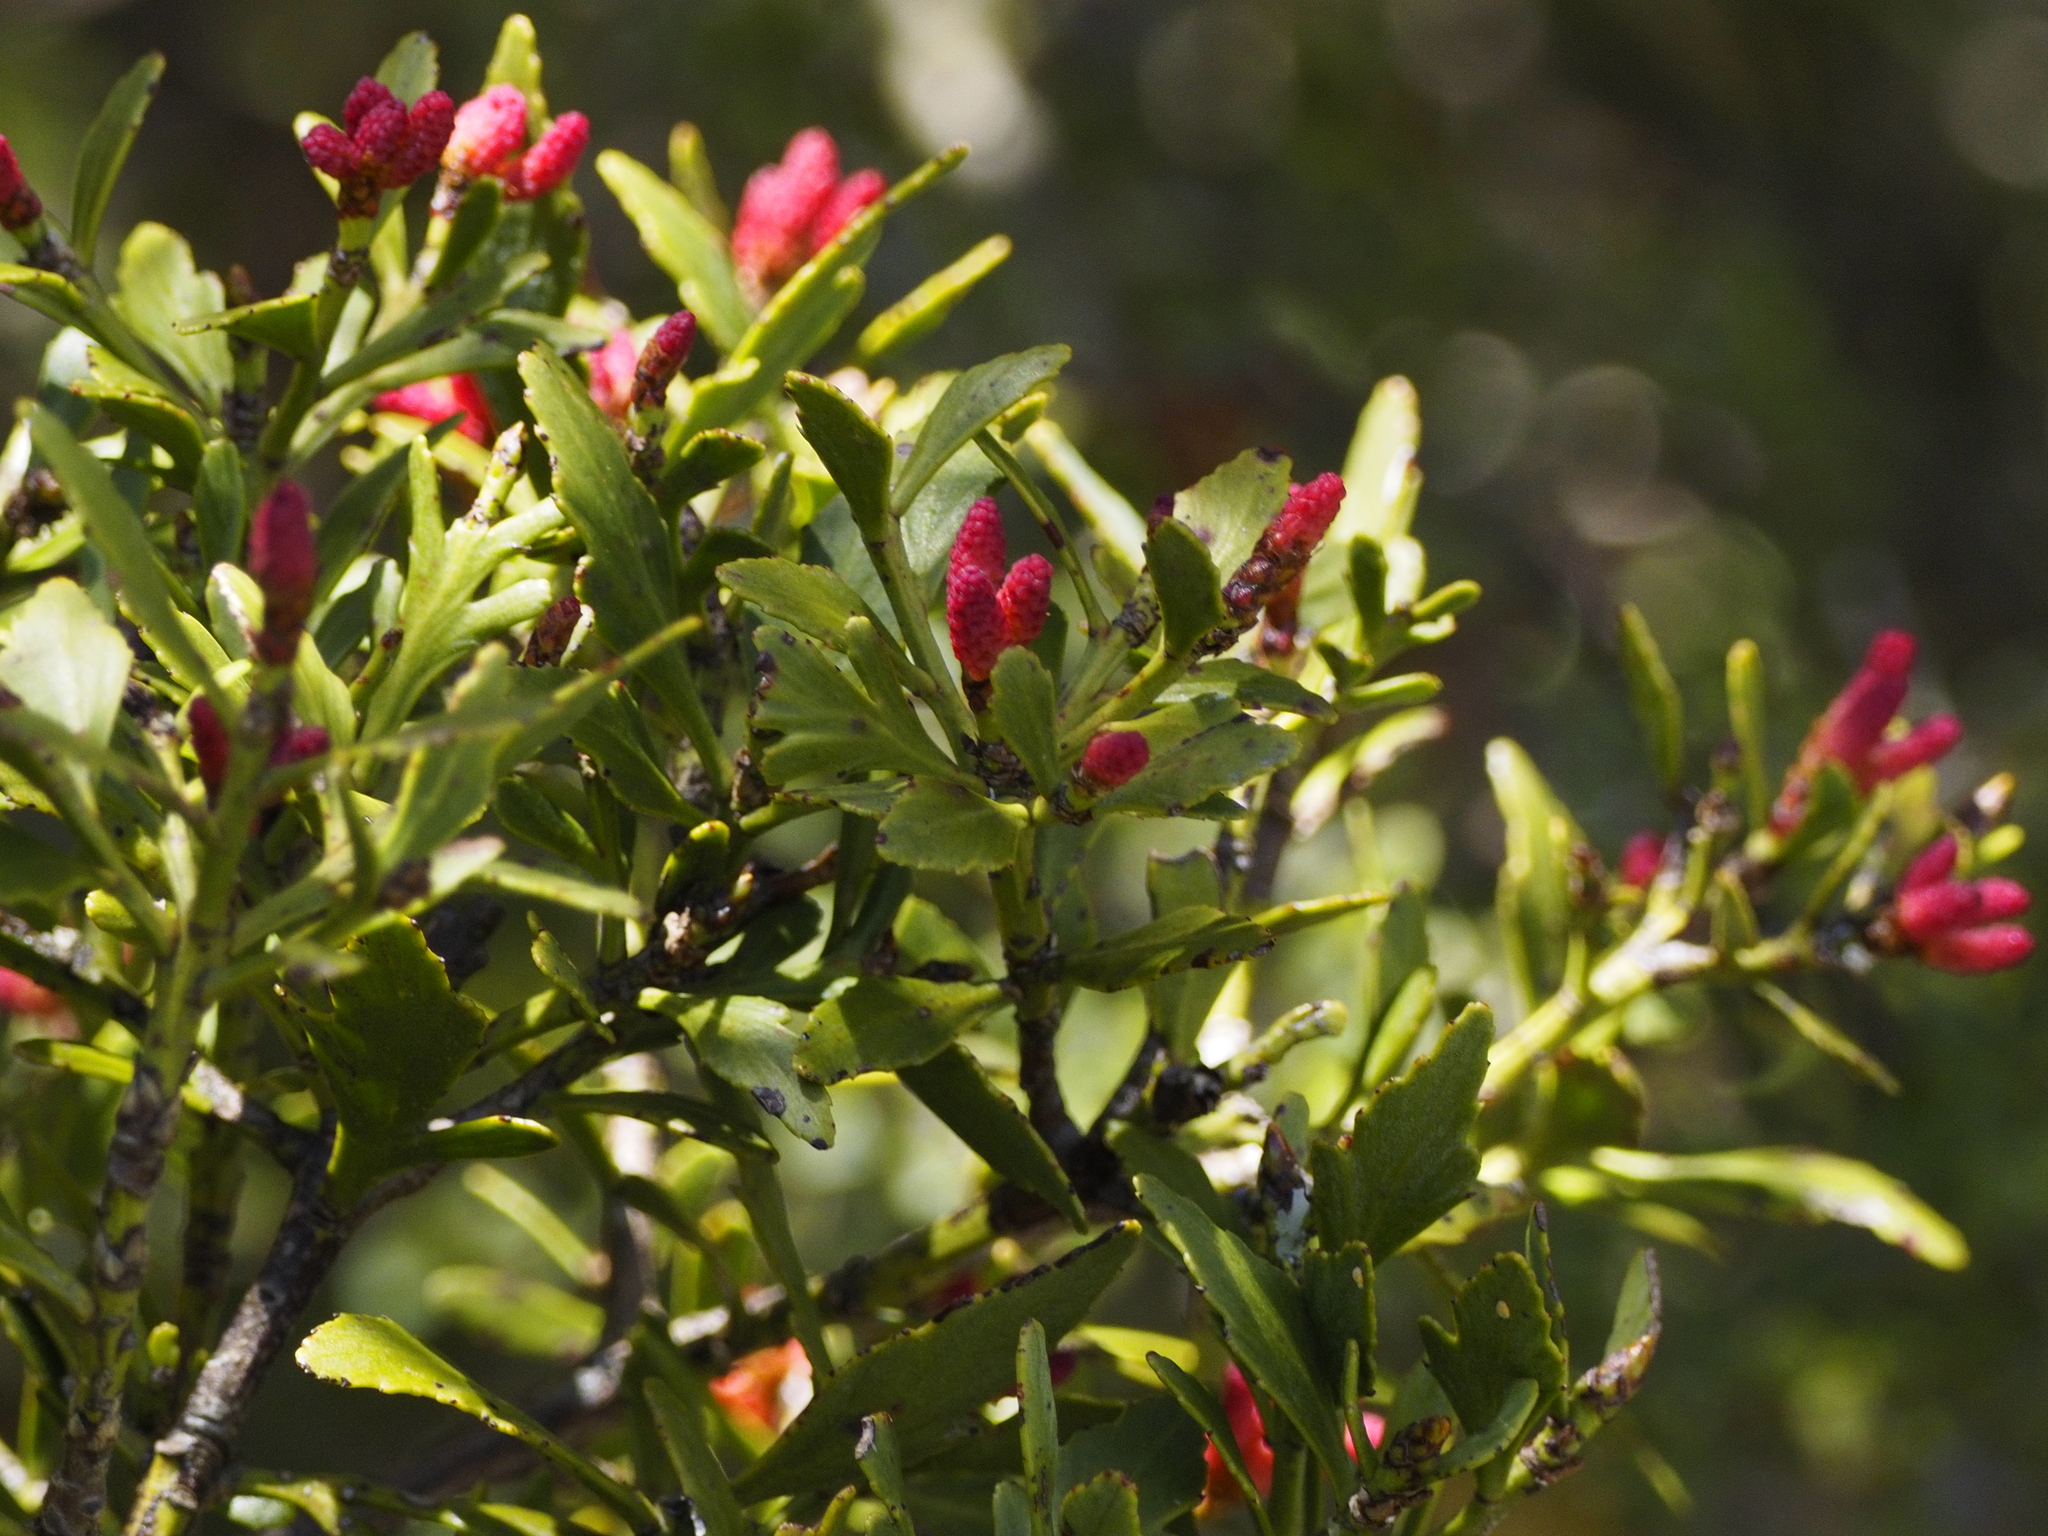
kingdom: Plantae
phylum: Tracheophyta
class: Pinopsida
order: Pinales
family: Phyllocladaceae
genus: Phyllocladus
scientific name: Phyllocladus trichomanoides
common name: Celery pine
